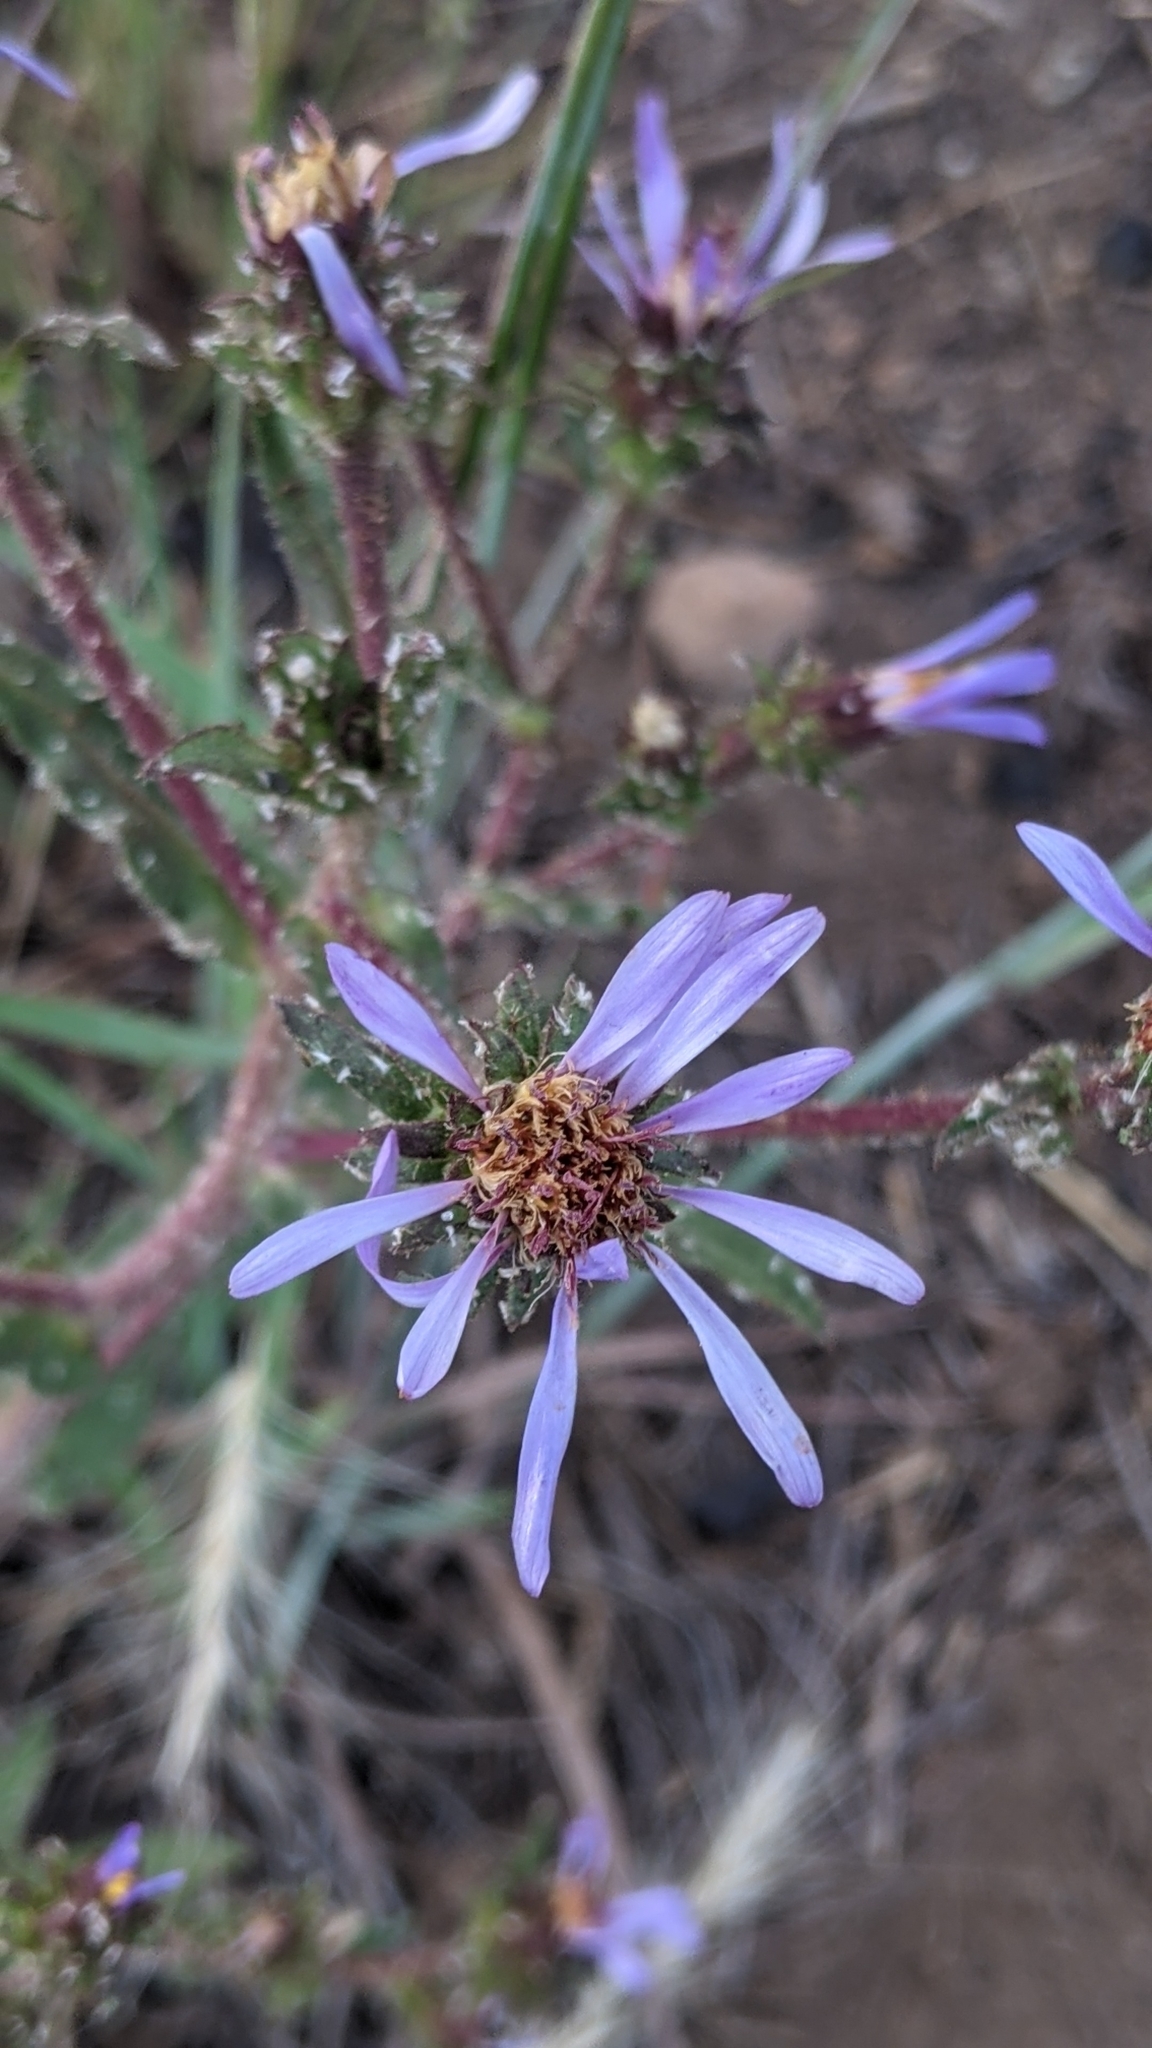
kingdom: Plantae
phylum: Tracheophyta
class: Magnoliopsida
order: Asterales
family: Asteraceae
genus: Eurybia
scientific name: Eurybia integrifolia
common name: Thick-stem aster
